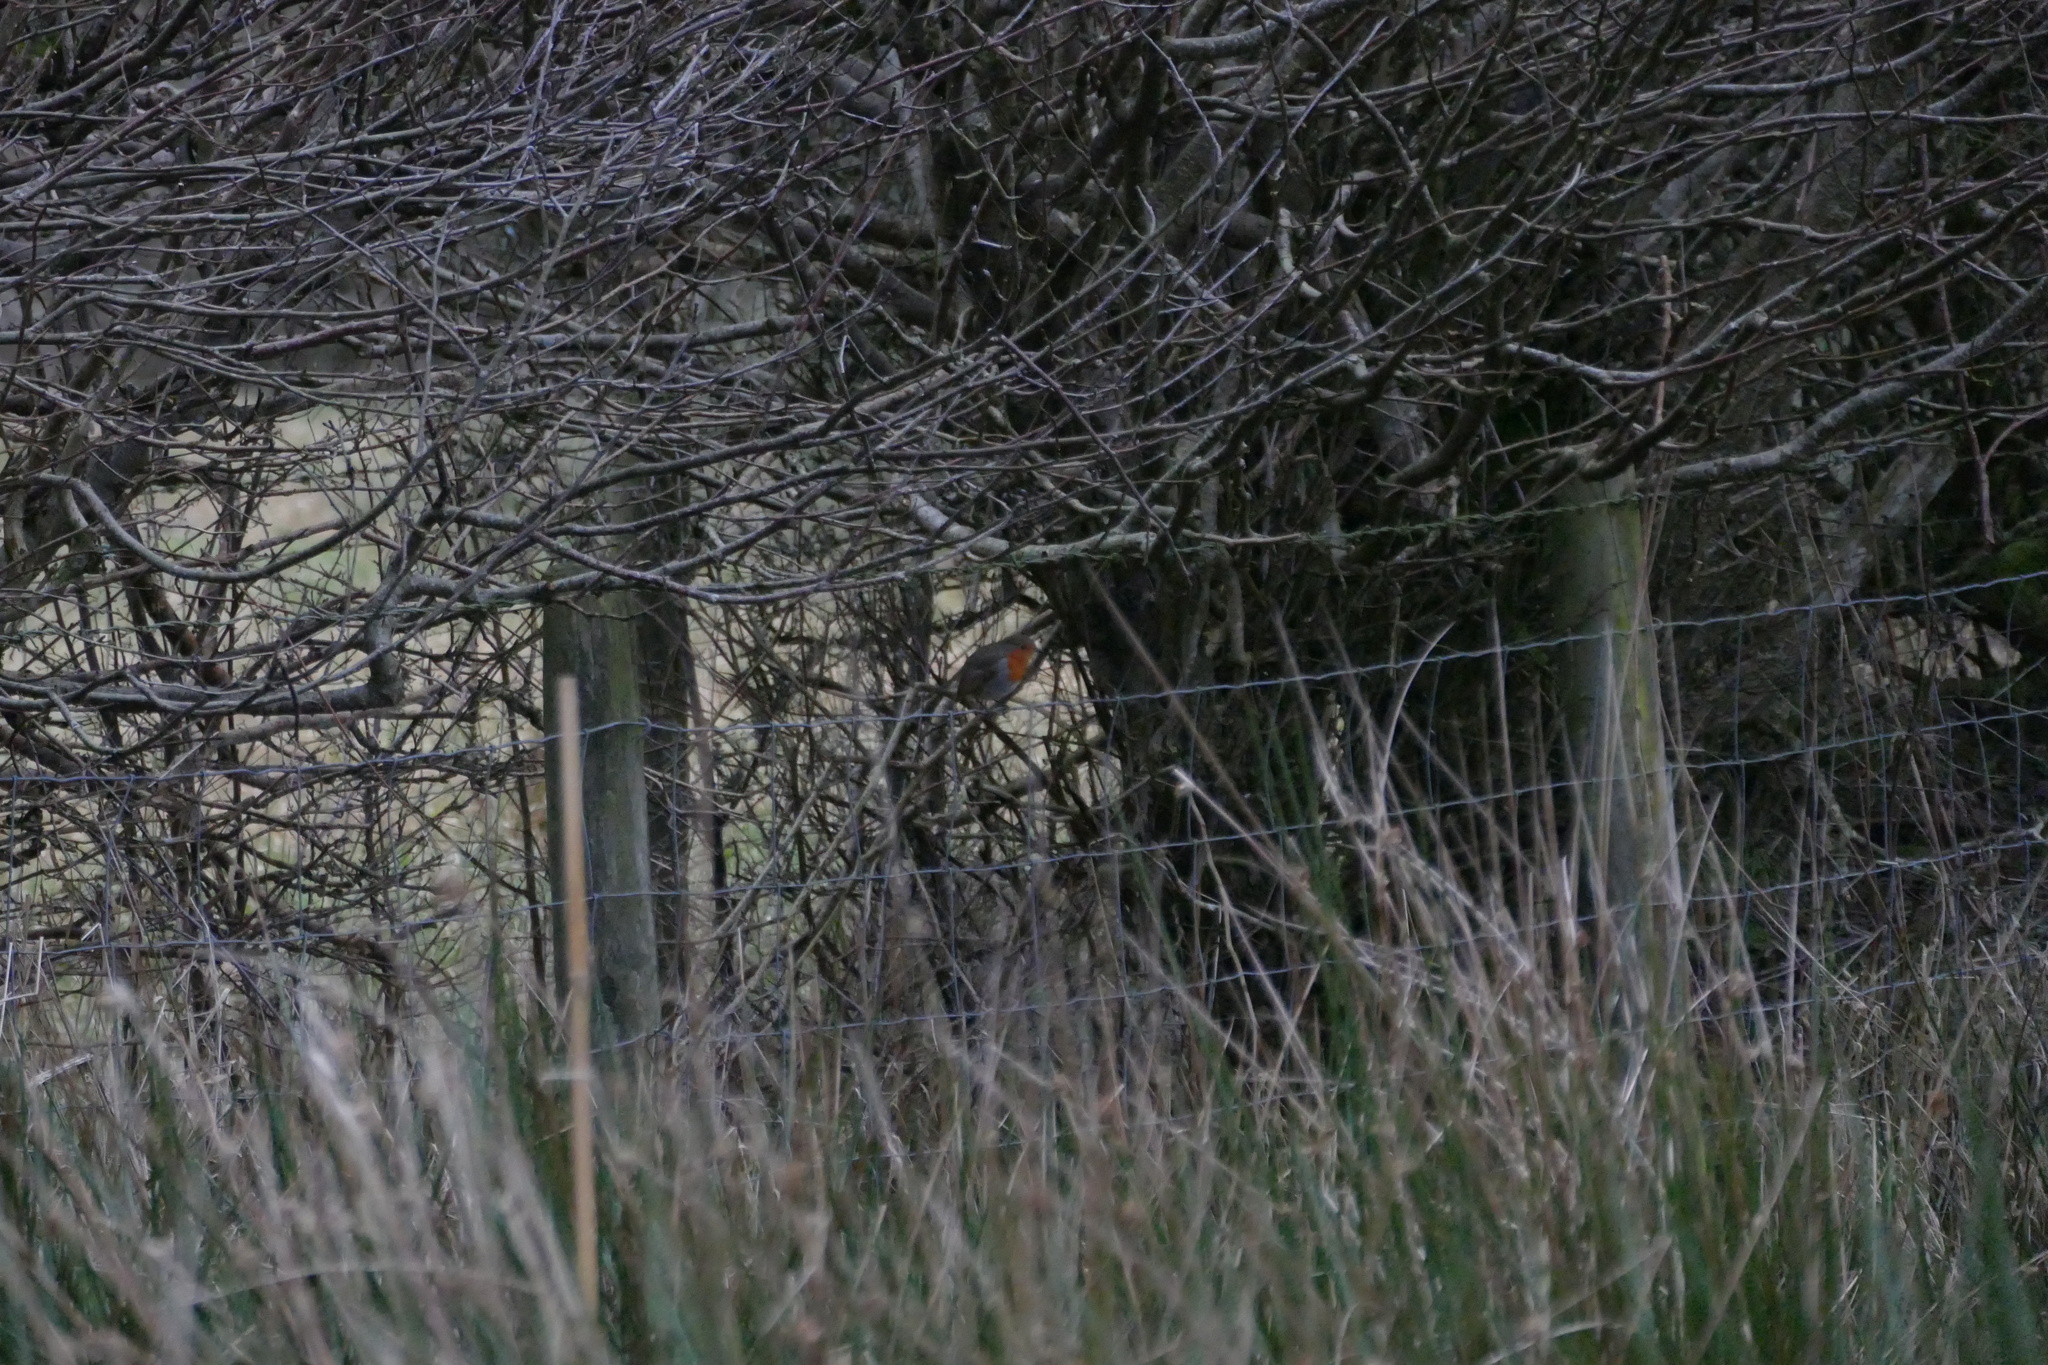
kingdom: Animalia
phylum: Chordata
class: Aves
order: Passeriformes
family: Muscicapidae
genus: Erithacus
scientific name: Erithacus rubecula
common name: European robin
